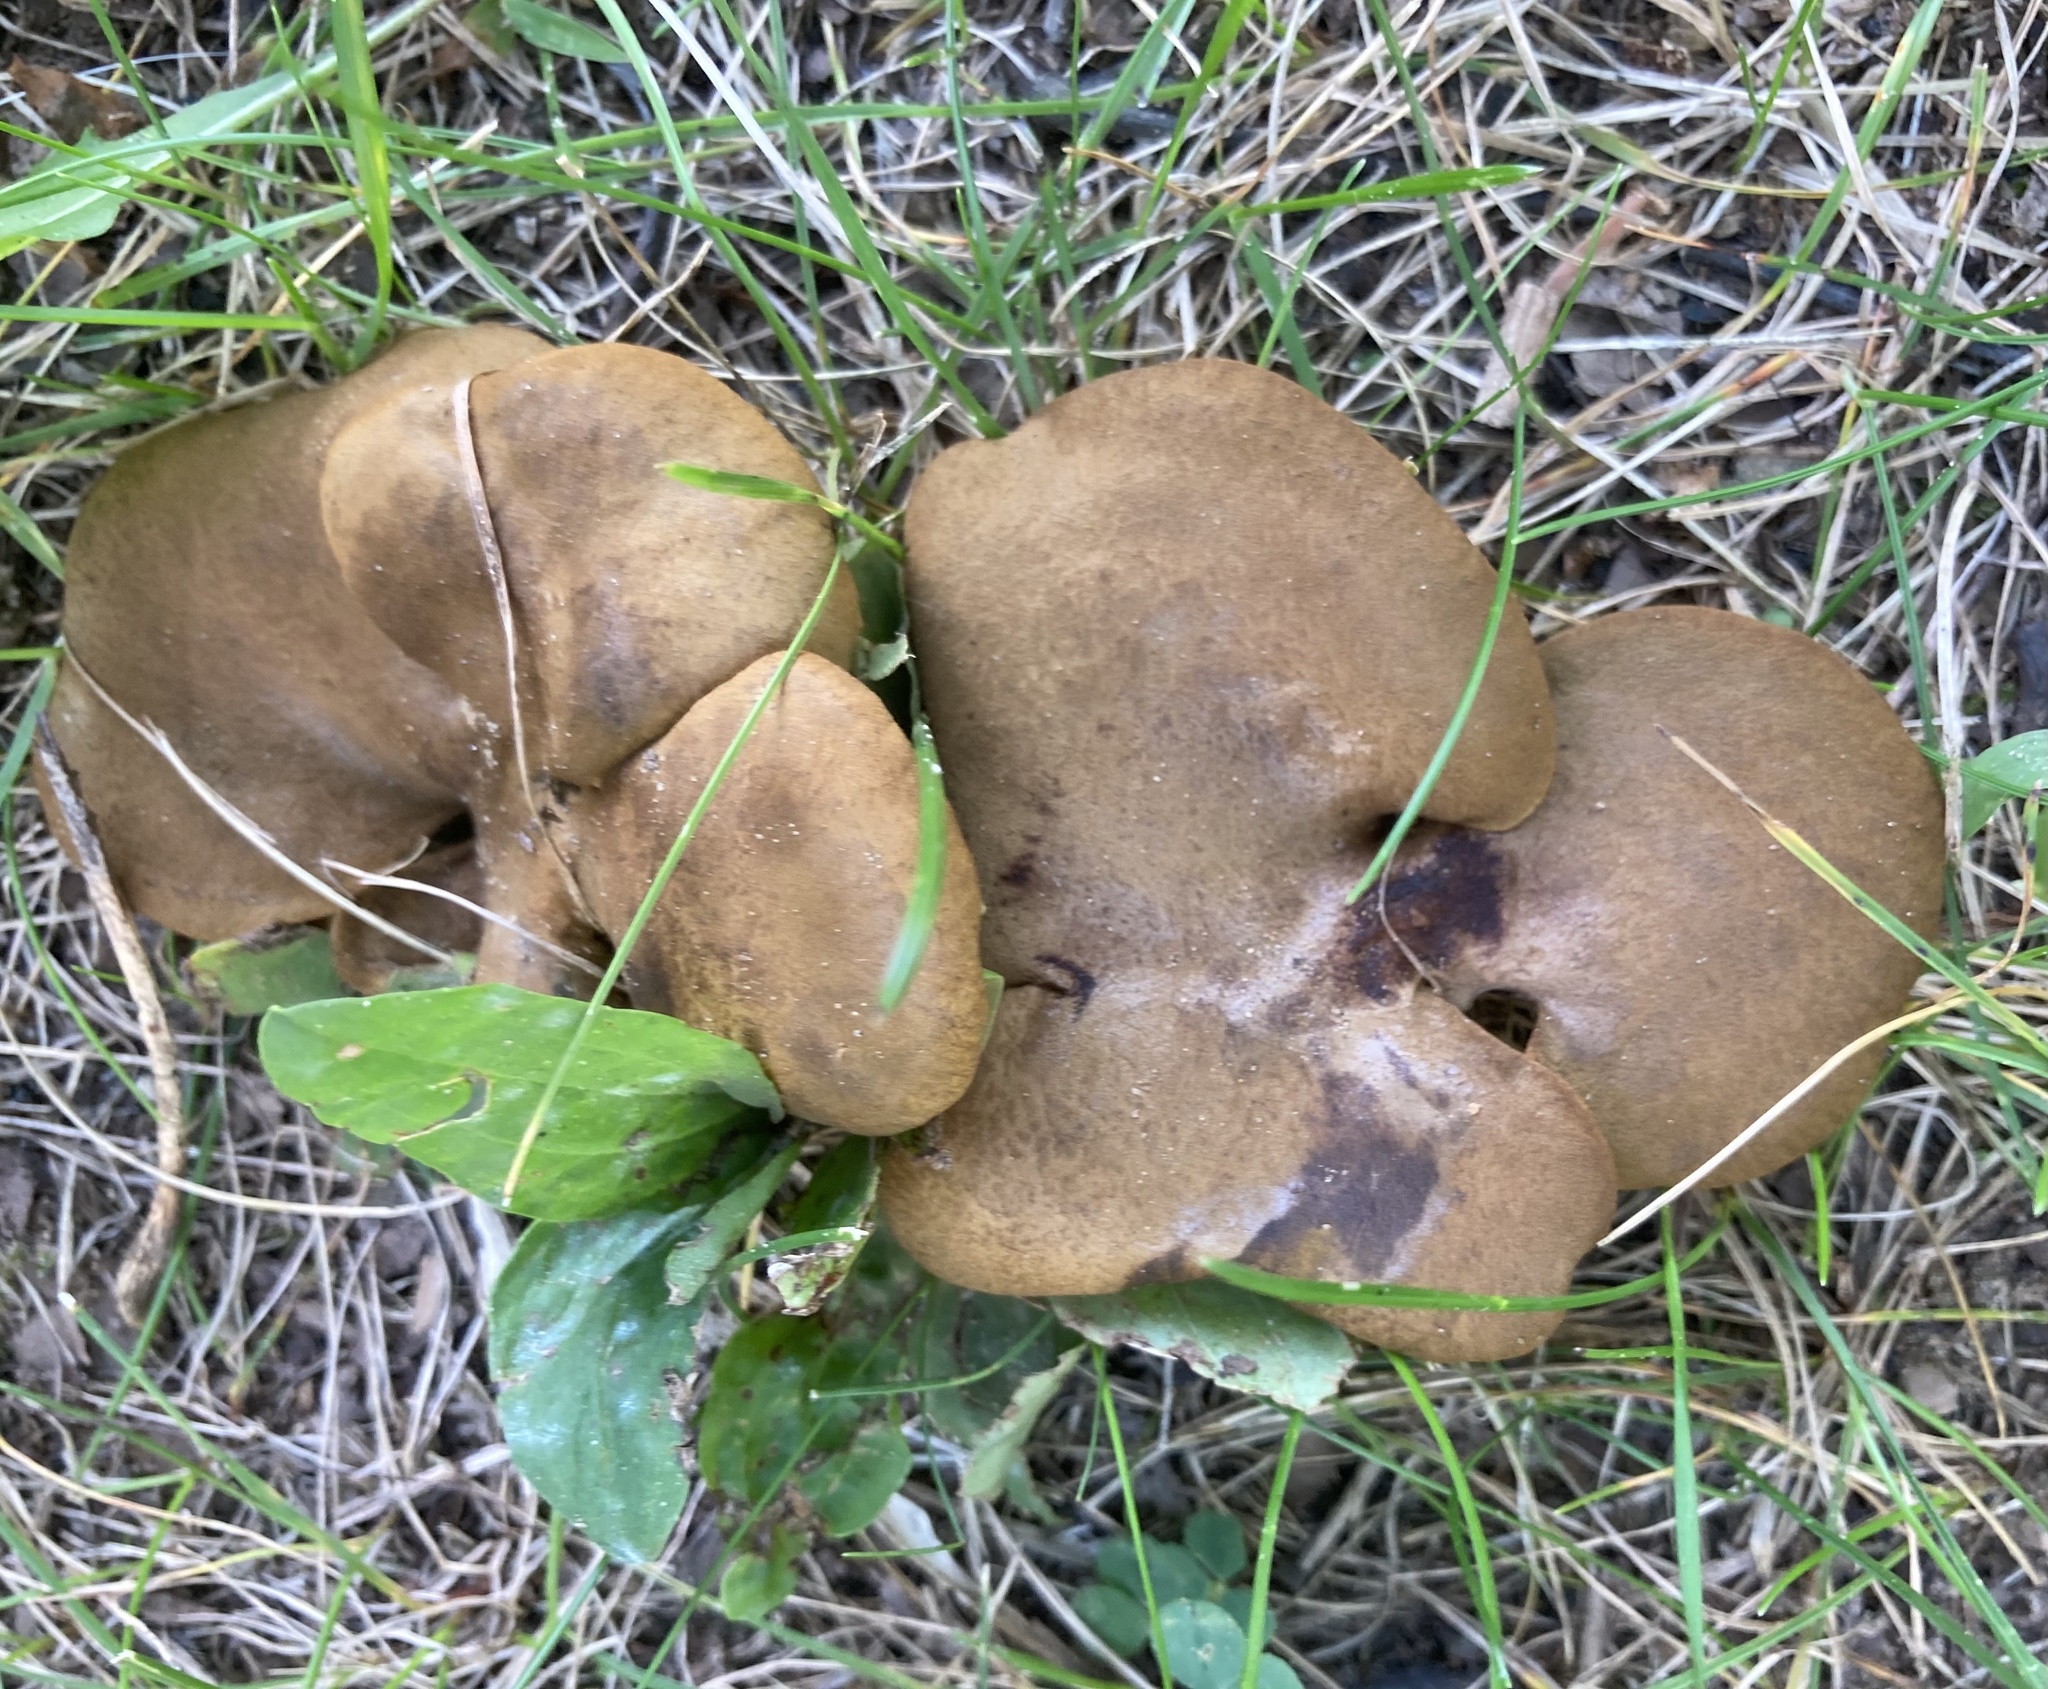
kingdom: Fungi
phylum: Basidiomycota
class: Agaricomycetes
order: Boletales
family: Boletinellaceae
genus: Boletinellus
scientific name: Boletinellus merulioides
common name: Ash tree bolete
